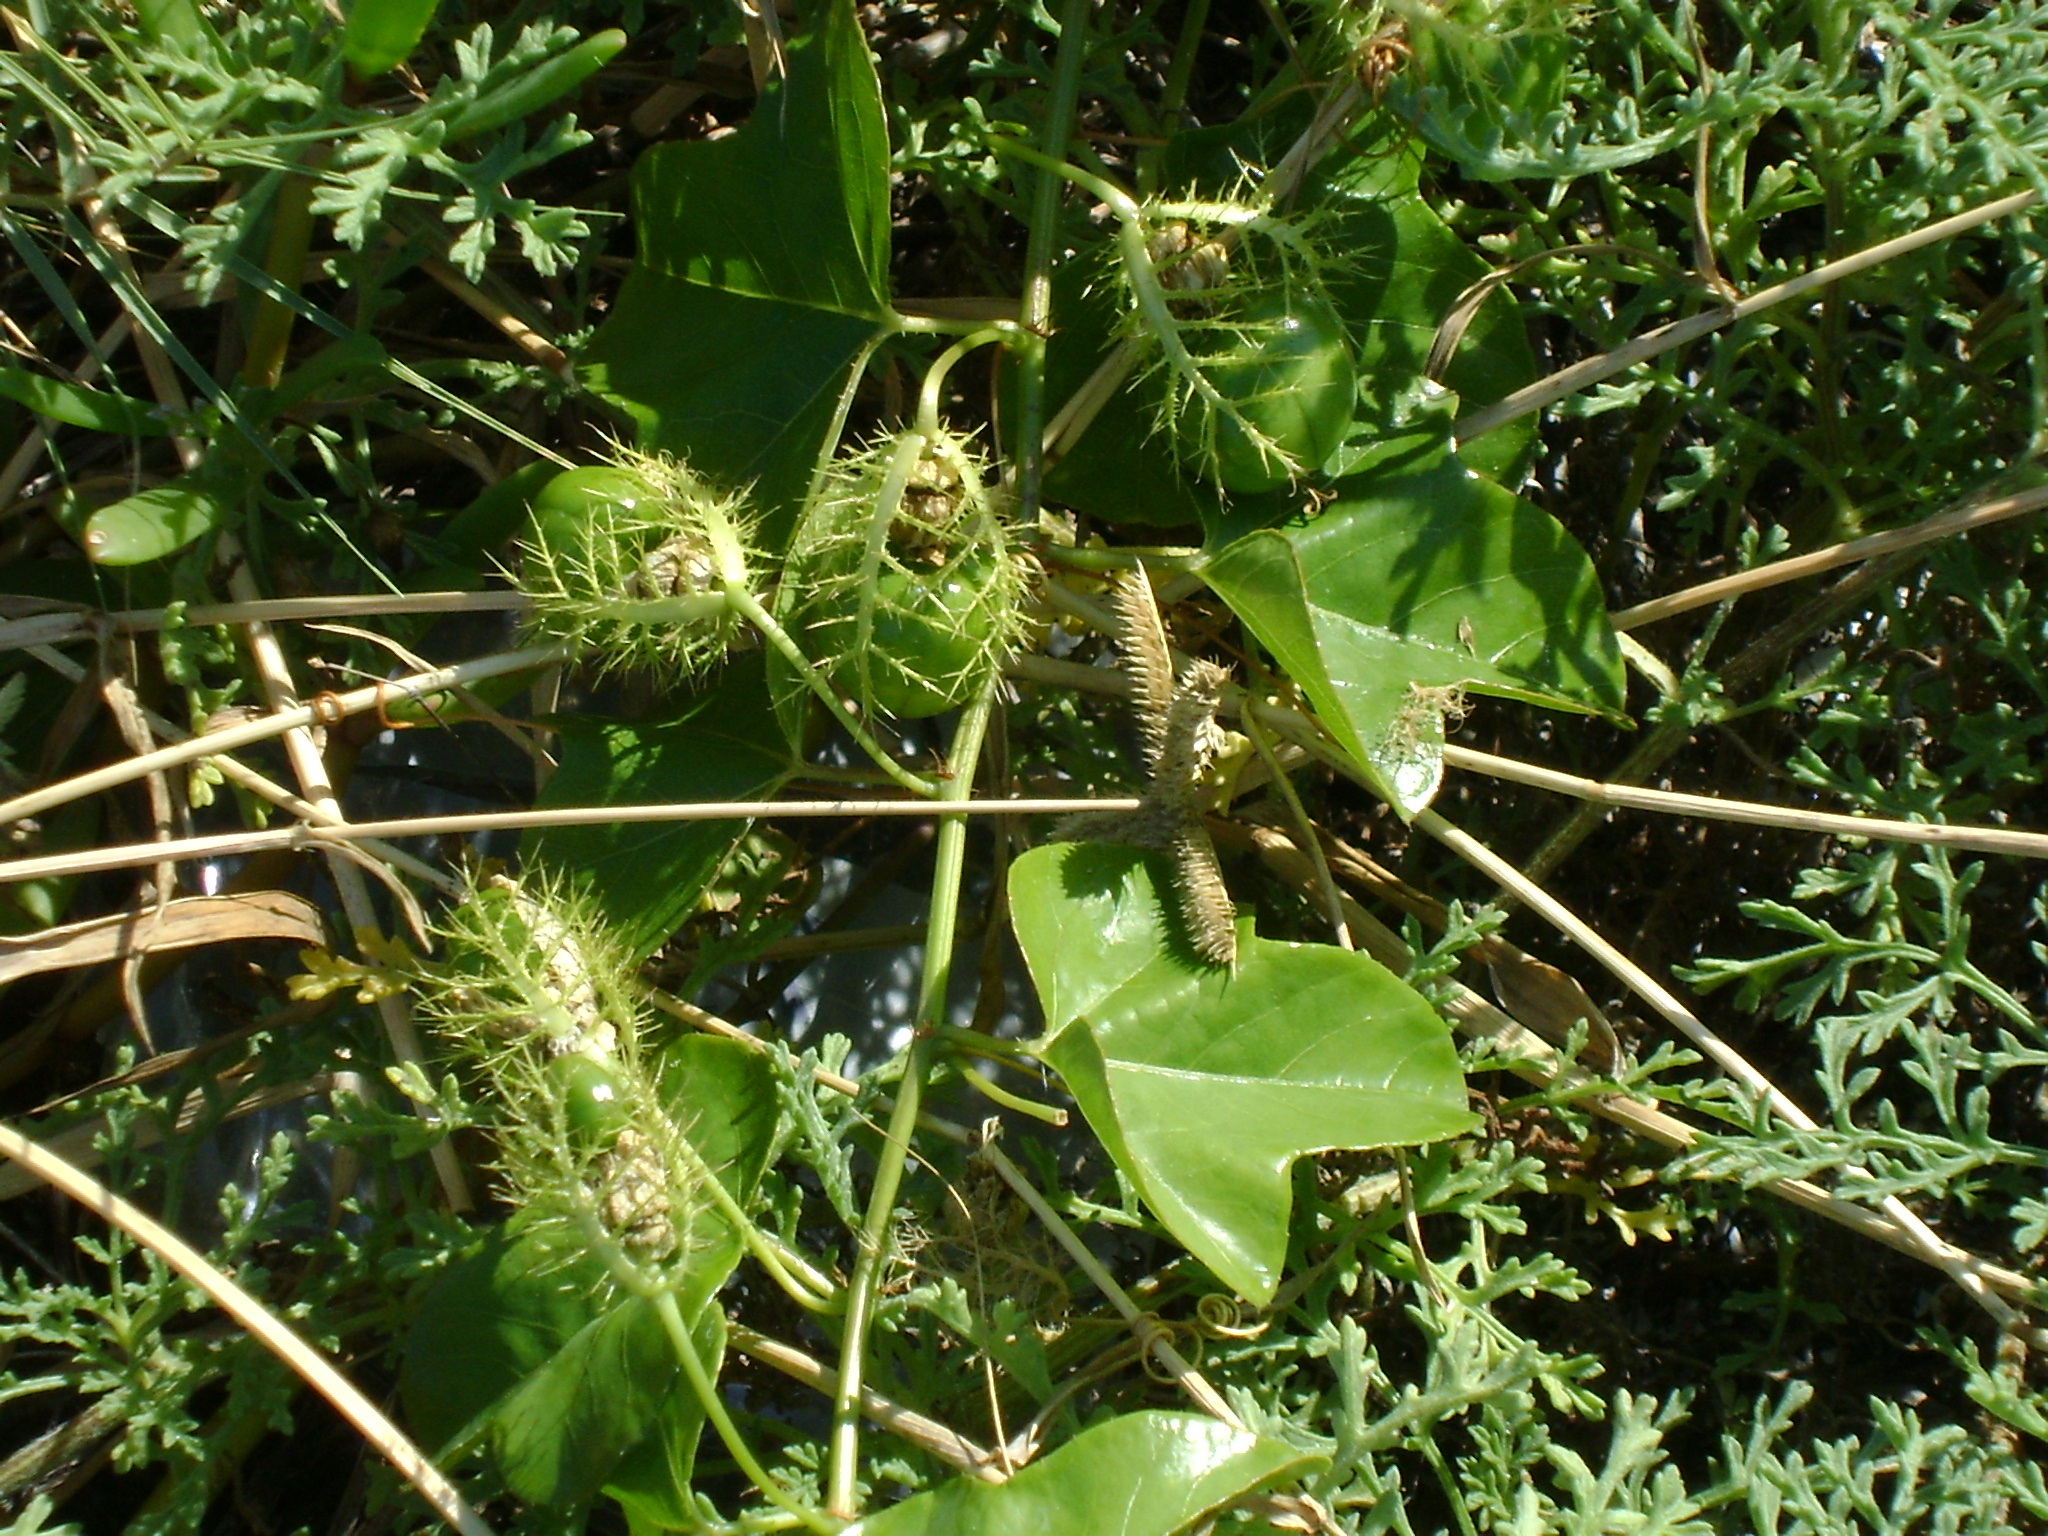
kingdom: Plantae
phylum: Tracheophyta
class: Magnoliopsida
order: Malpighiales
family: Passifloraceae
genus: Passiflora
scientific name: Passiflora ciliata
